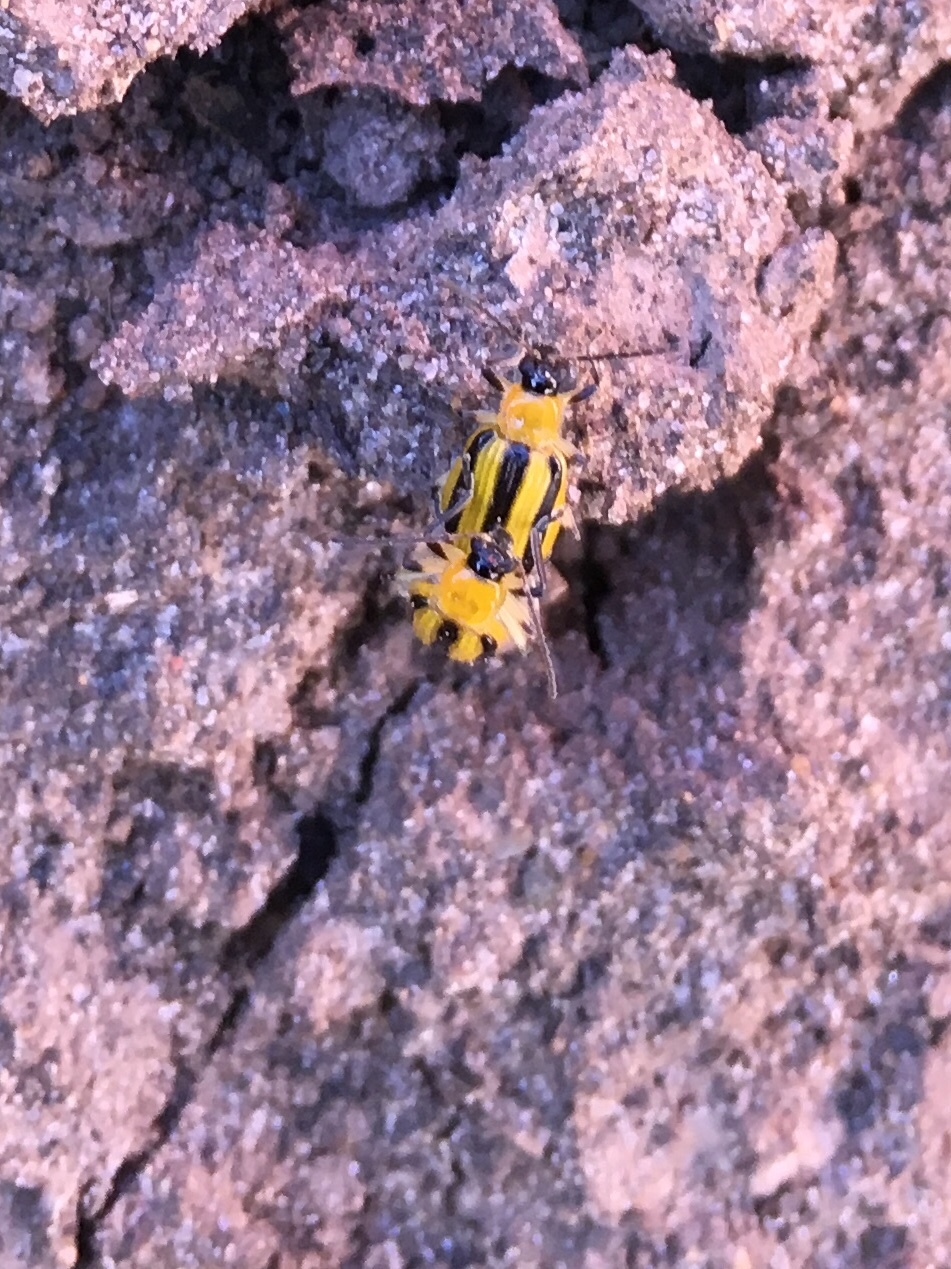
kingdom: Animalia
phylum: Arthropoda
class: Insecta
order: Coleoptera
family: Chrysomelidae
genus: Acalymma
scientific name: Acalymma vittatum
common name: Striped cucumber beetle
